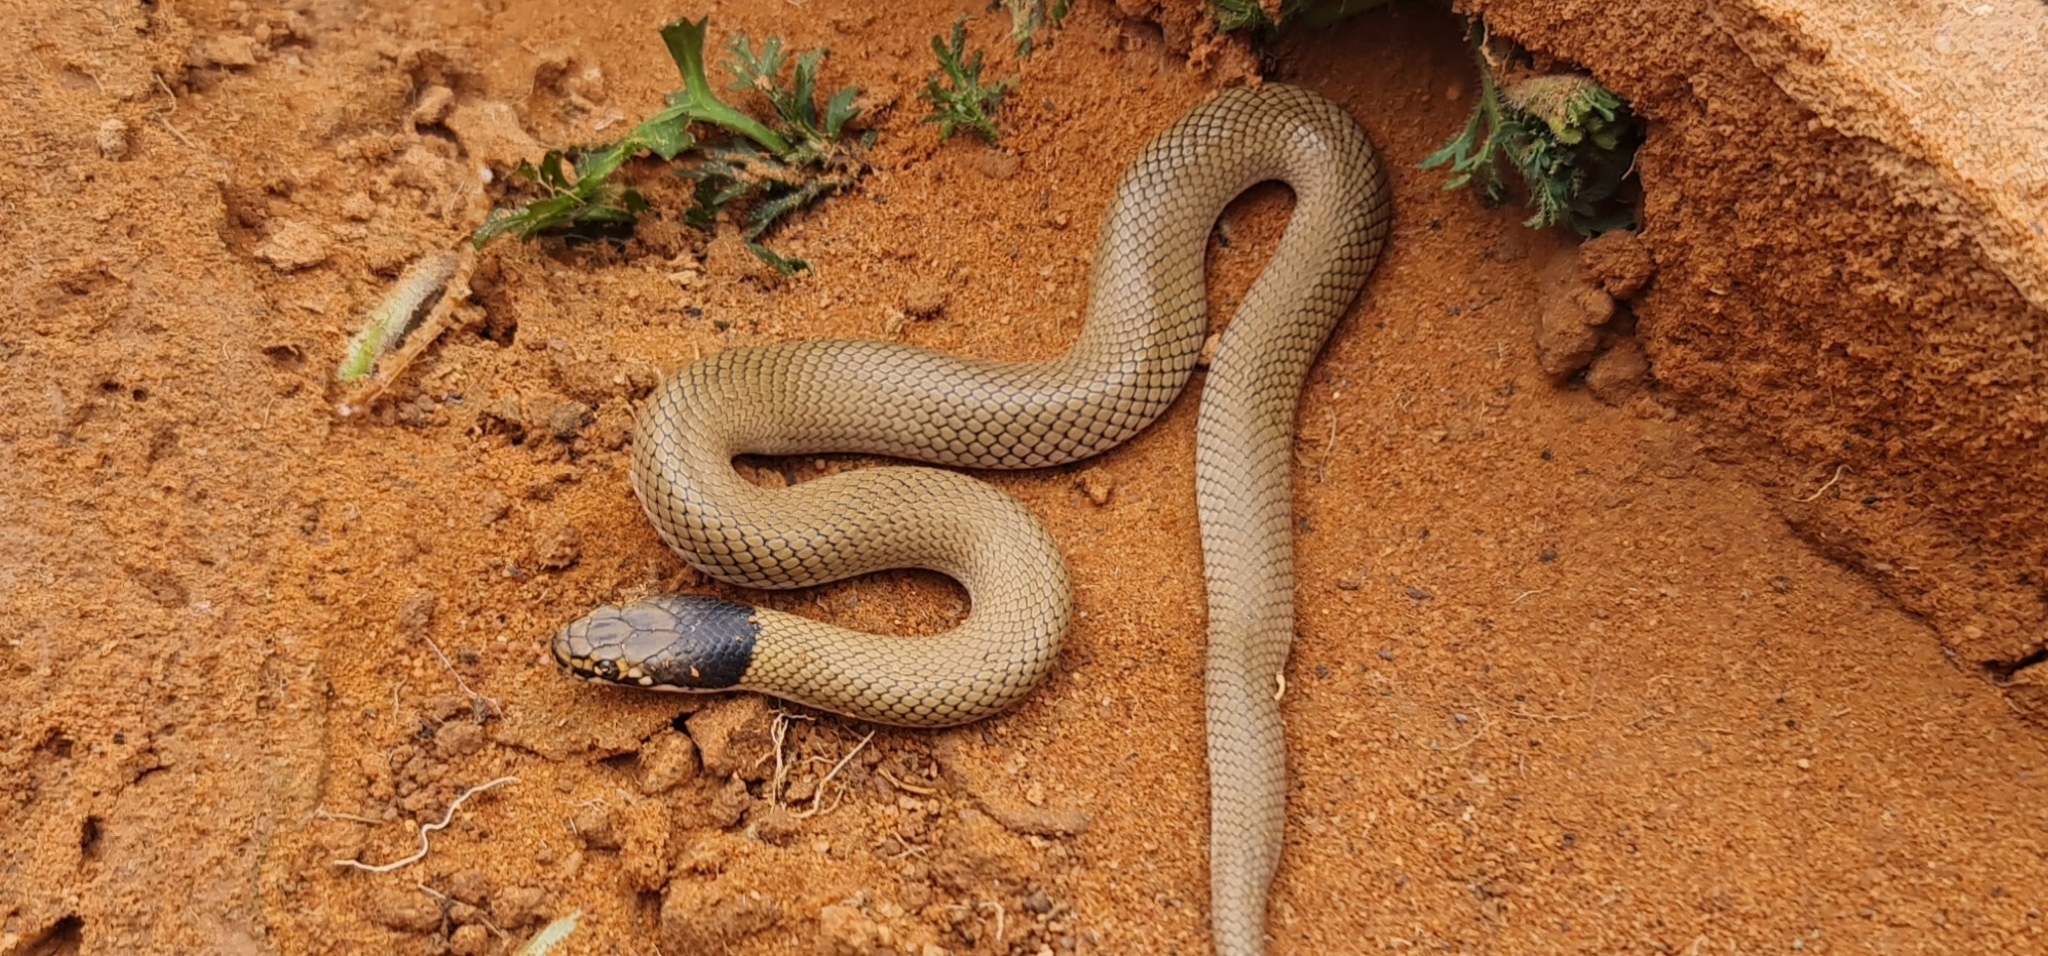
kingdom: Animalia
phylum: Chordata
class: Squamata
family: Elapidae
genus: Suta
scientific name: Suta suta
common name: Curl snake
